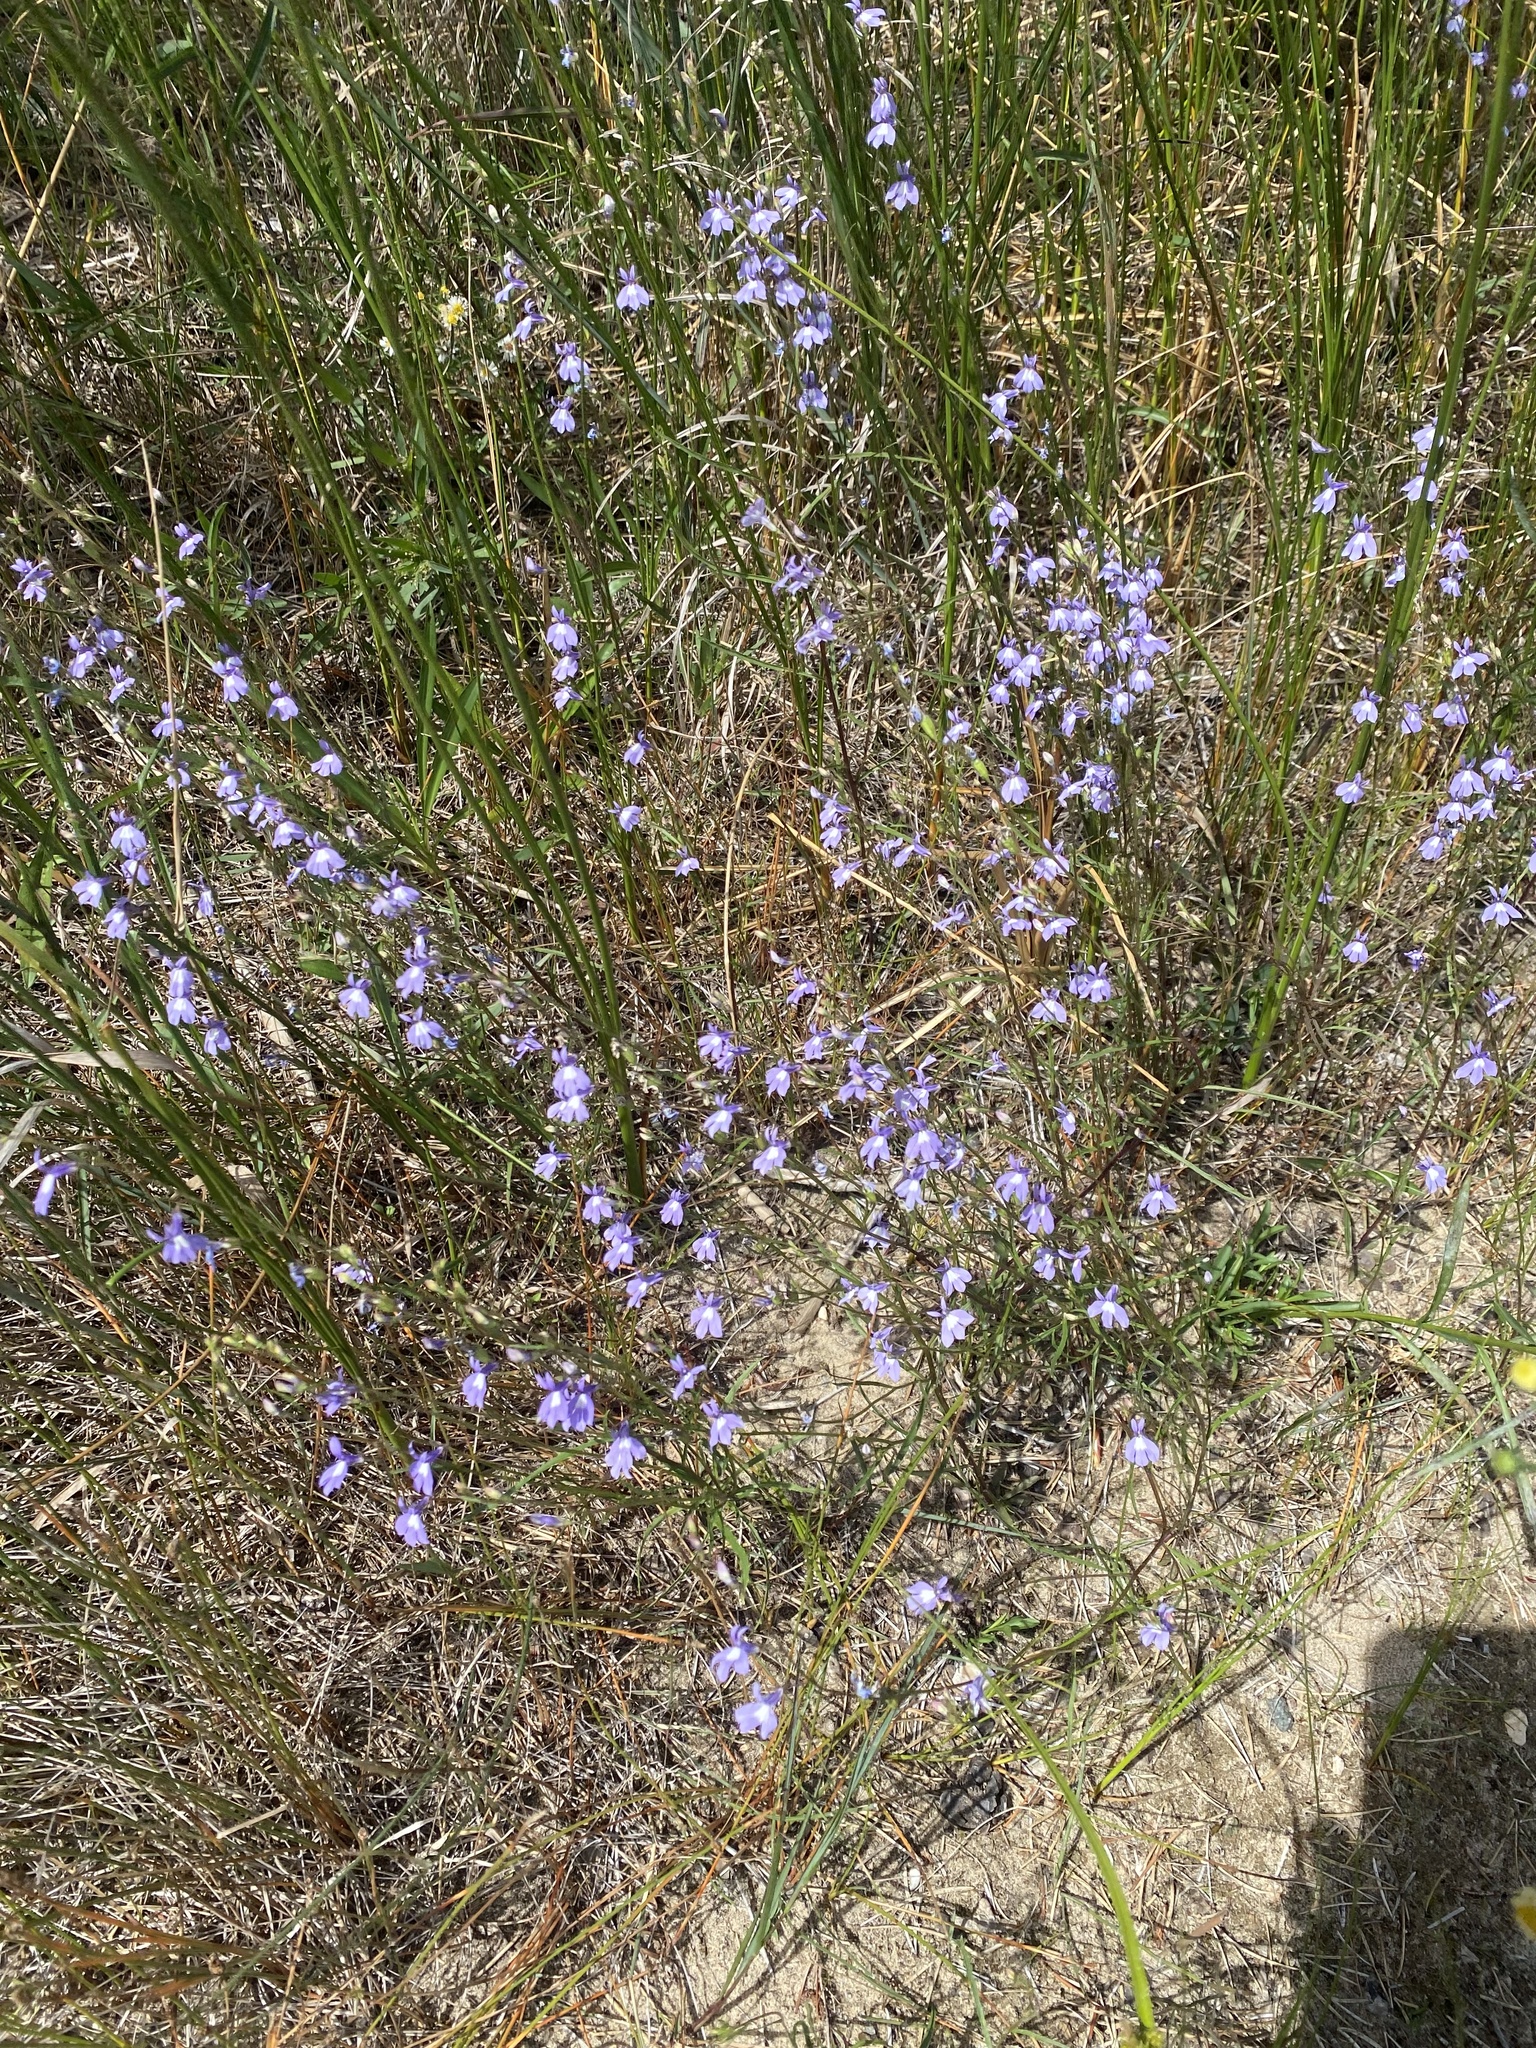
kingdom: Plantae
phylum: Tracheophyta
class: Magnoliopsida
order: Asterales
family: Campanulaceae
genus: Lobelia
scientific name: Lobelia kalmii
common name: Kalm's lobelia
